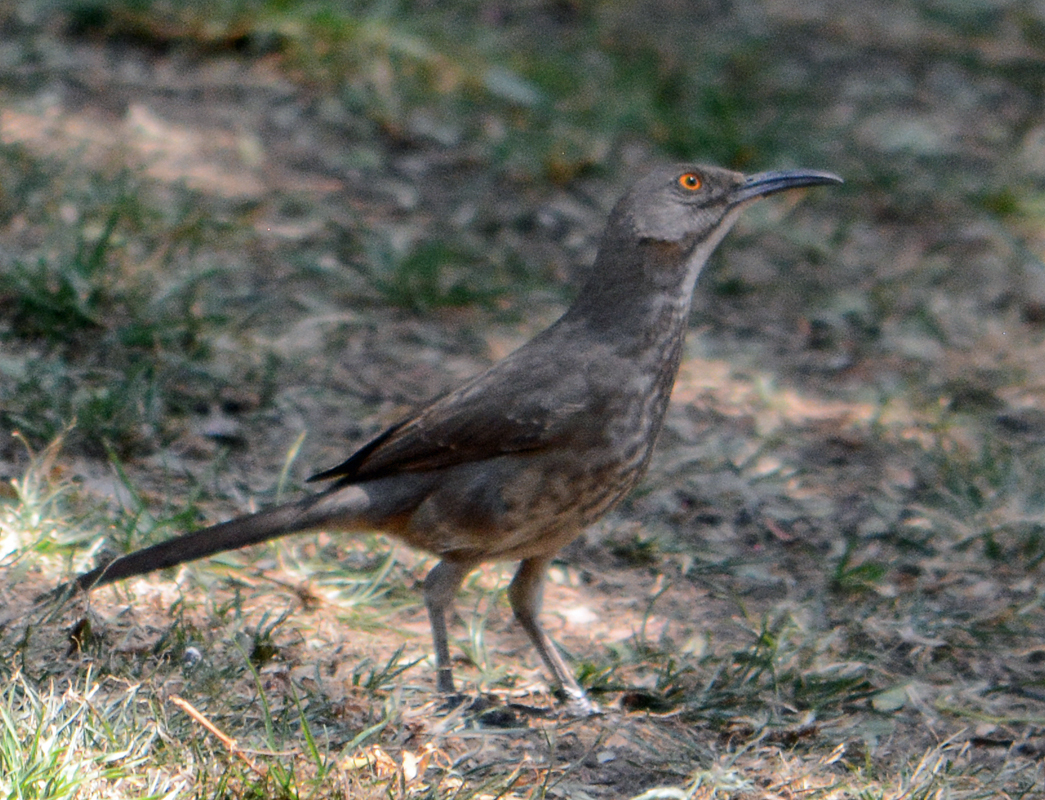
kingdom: Animalia
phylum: Chordata
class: Aves
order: Passeriformes
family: Mimidae
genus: Toxostoma
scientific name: Toxostoma curvirostre
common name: Curve-billed thrasher
